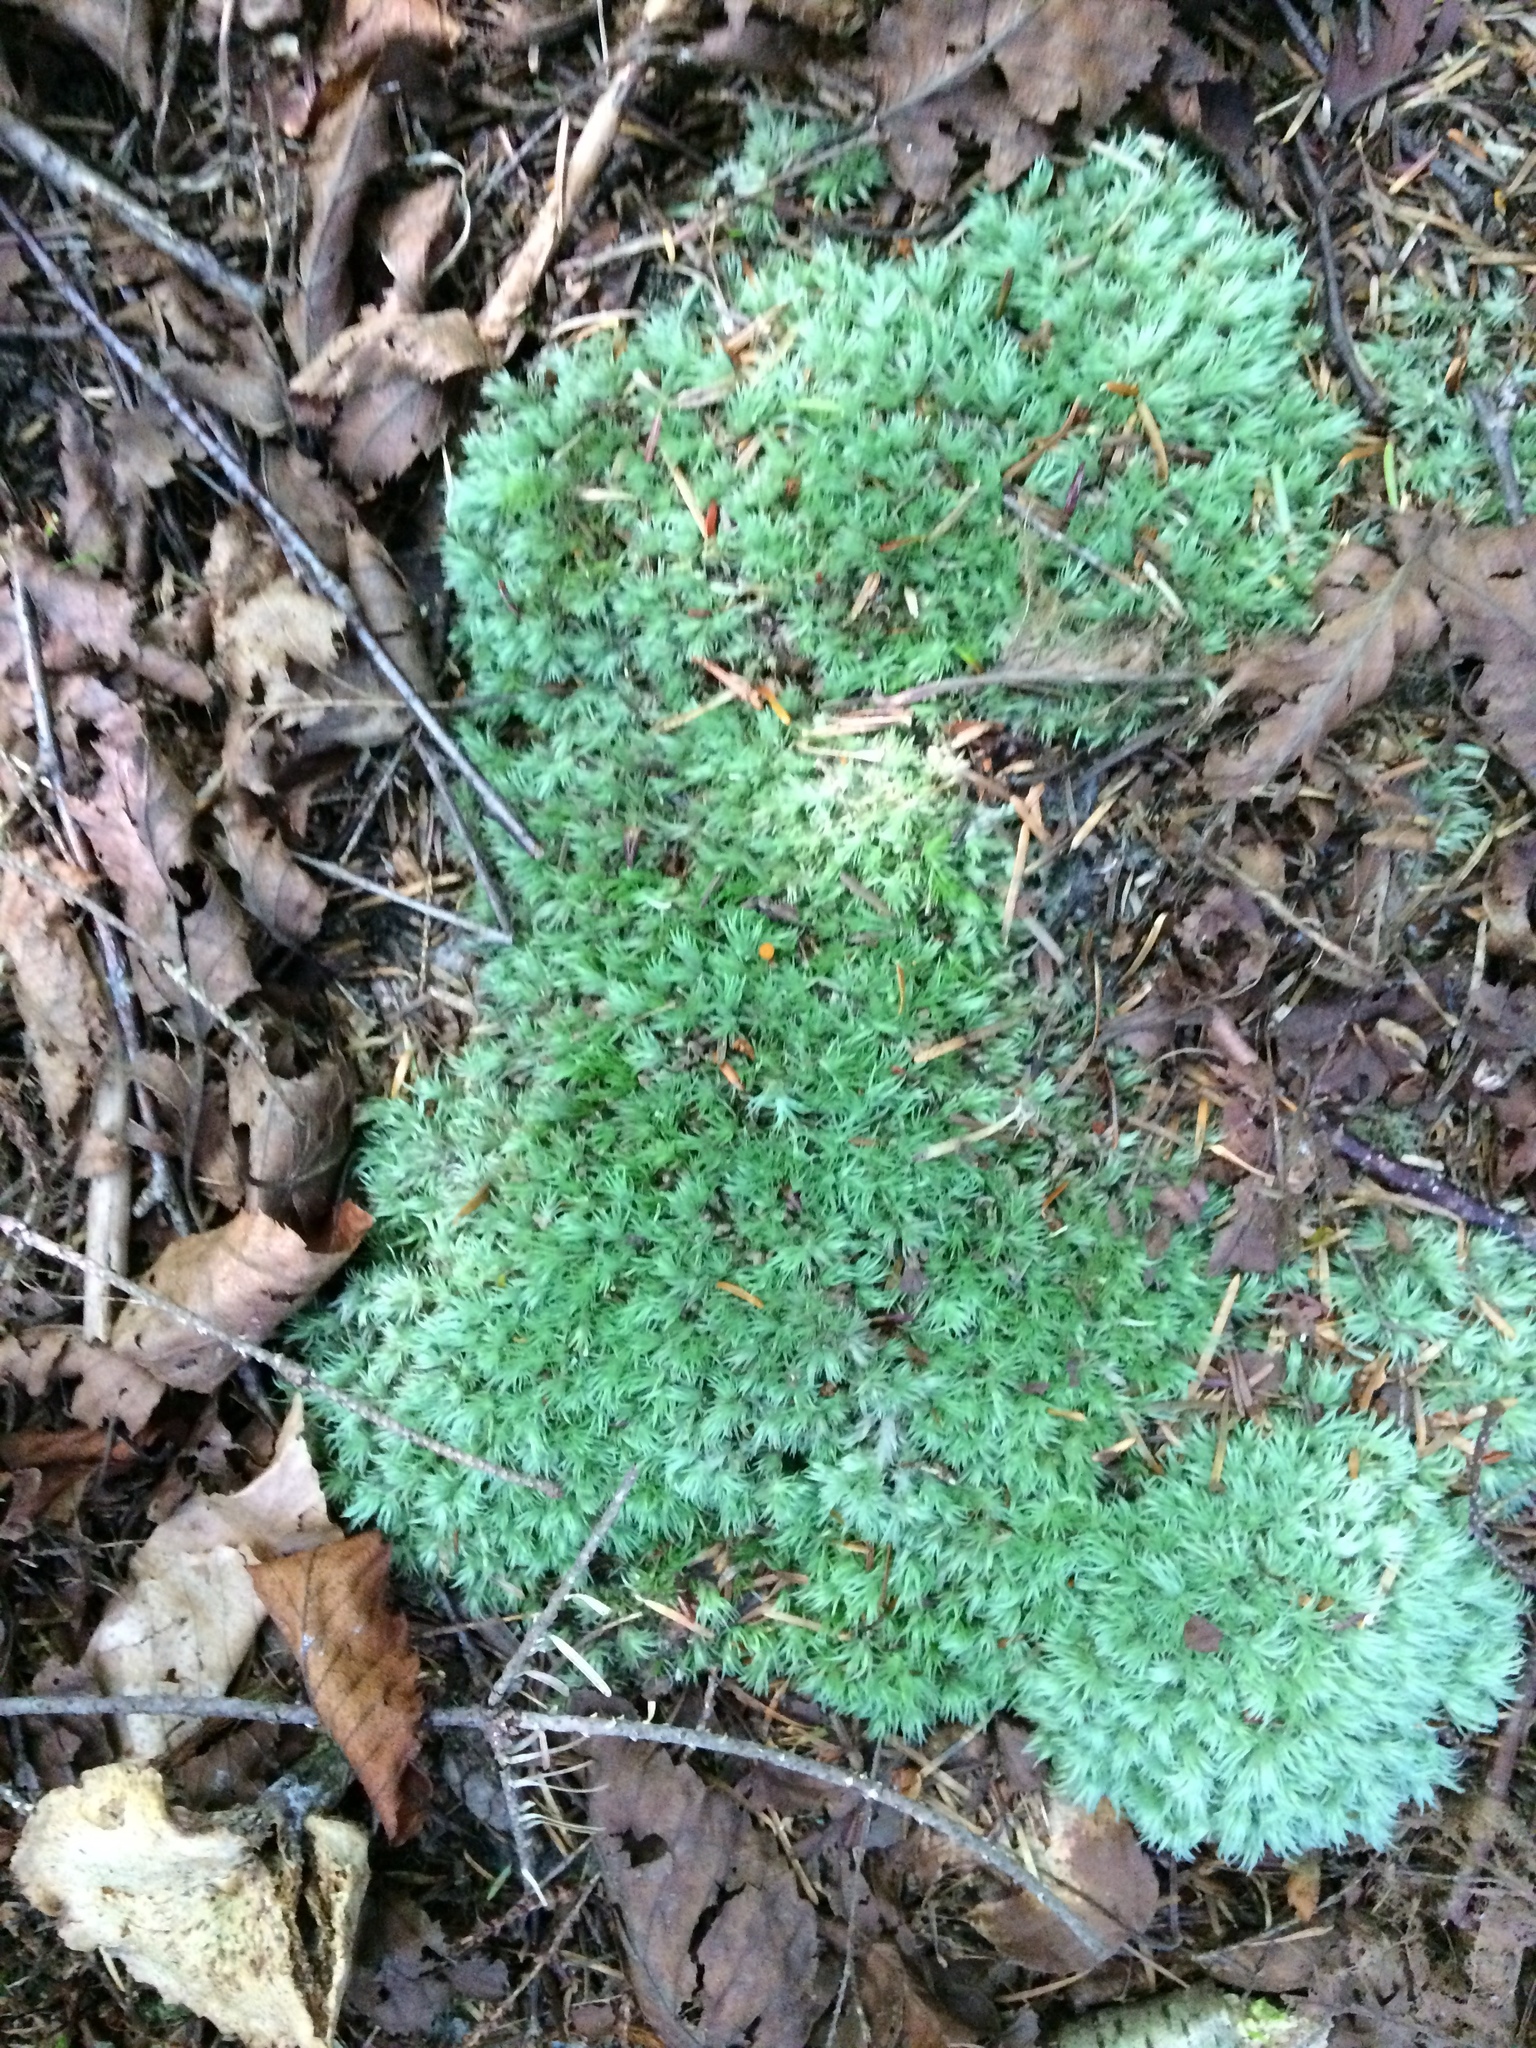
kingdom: Plantae
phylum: Bryophyta
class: Bryopsida
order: Dicranales
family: Leucobryaceae
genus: Leucobryum
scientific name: Leucobryum glaucum
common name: Large white-moss
